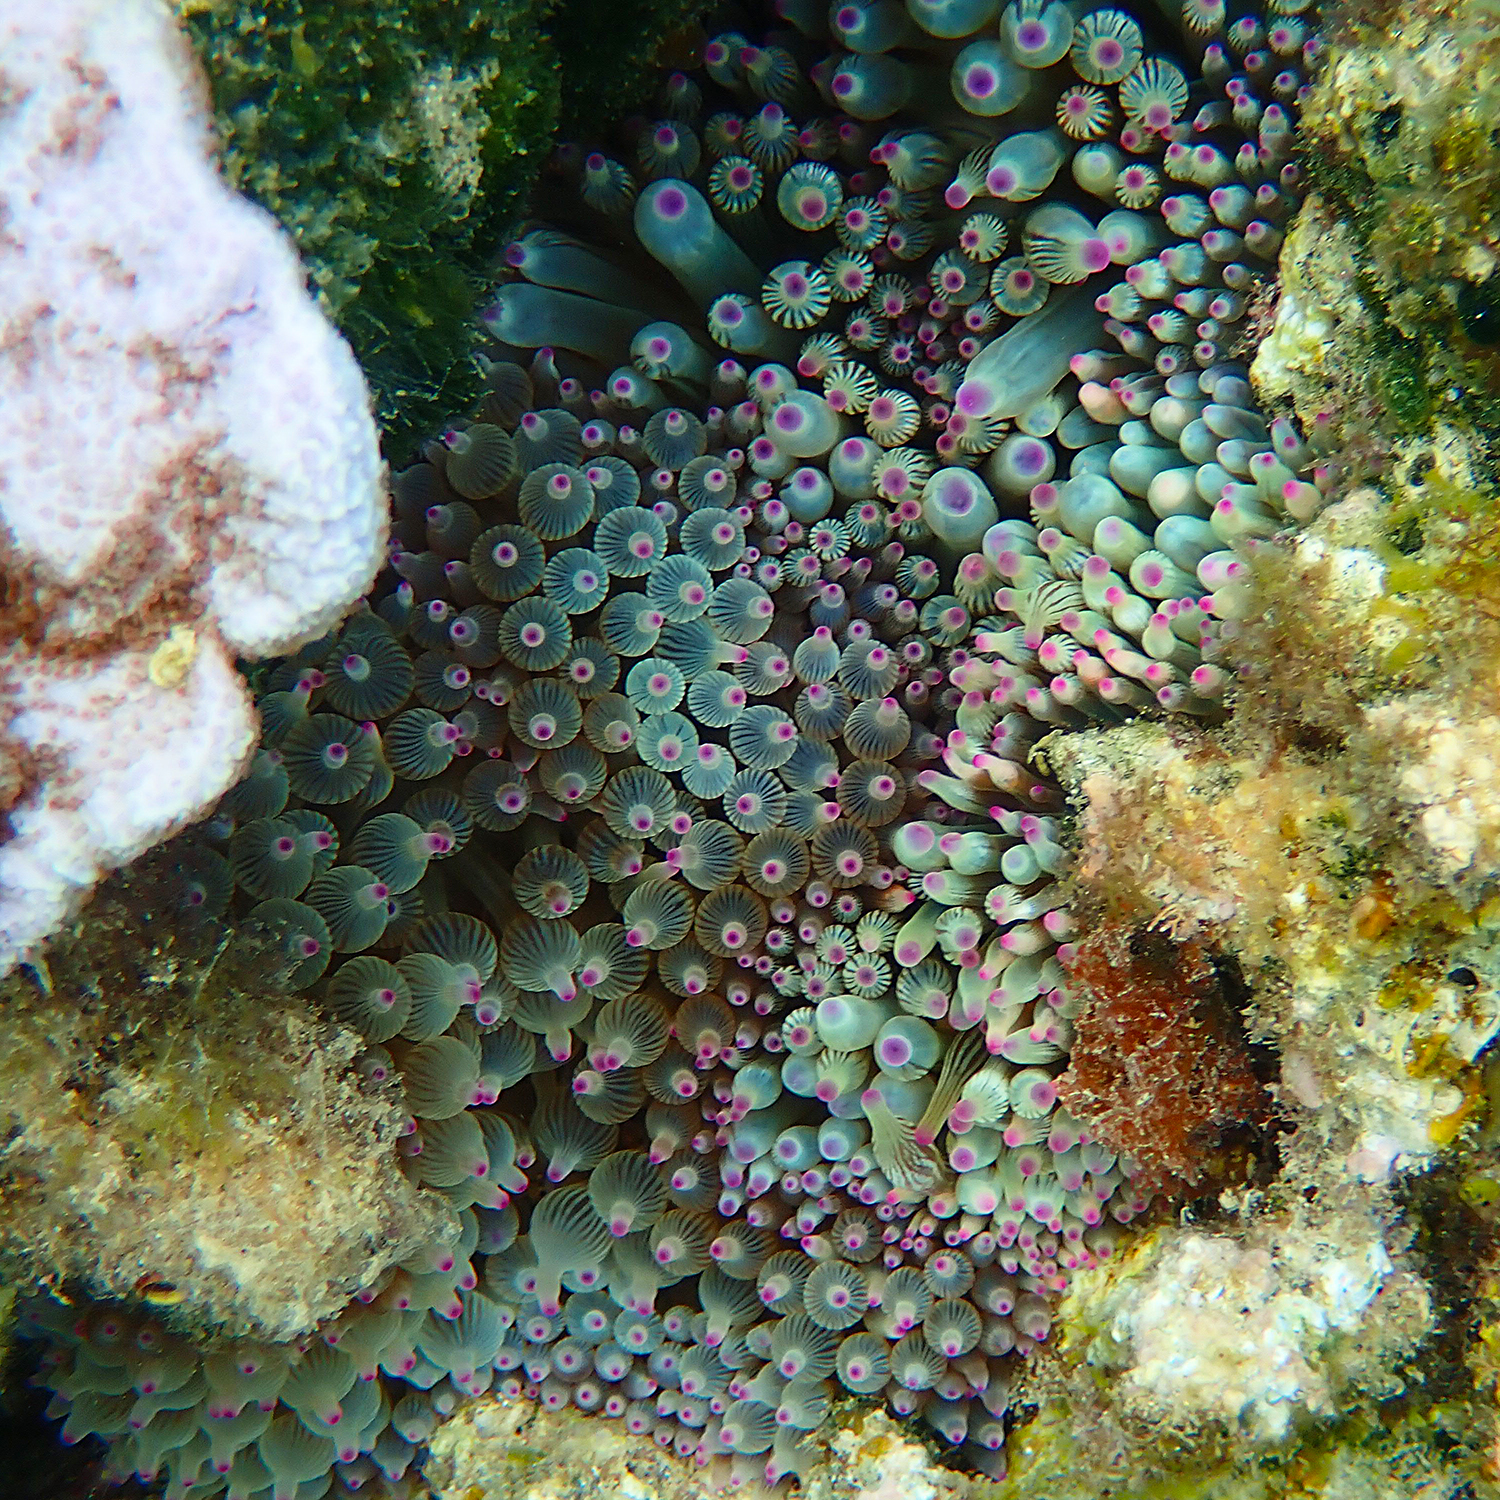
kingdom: Animalia
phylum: Cnidaria
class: Anthozoa
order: Actiniaria
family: Actiniidae
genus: Entacmaea
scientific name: Entacmaea quadricolor
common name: Bulb tentacle sea anemone
